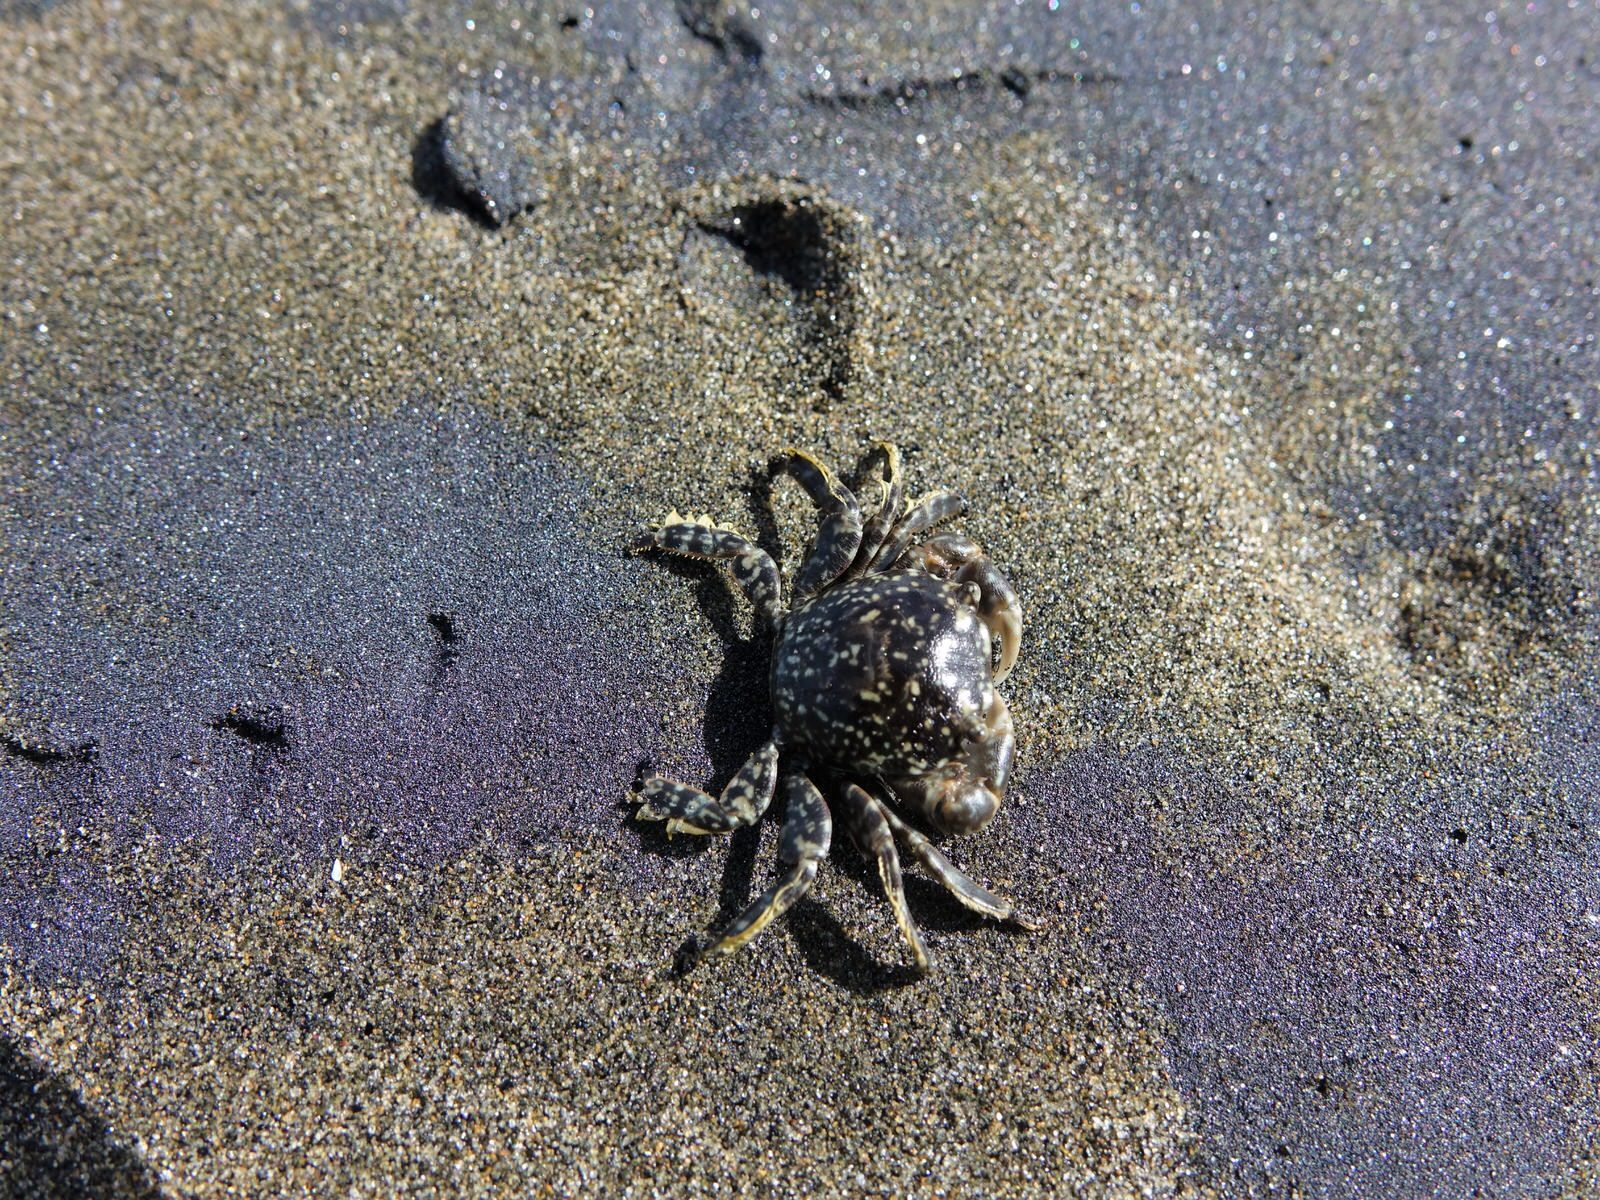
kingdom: Animalia
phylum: Arthropoda
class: Malacostraca
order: Decapoda
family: Grapsidae
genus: Planes
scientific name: Planes minutus
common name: Gulf weed crab
